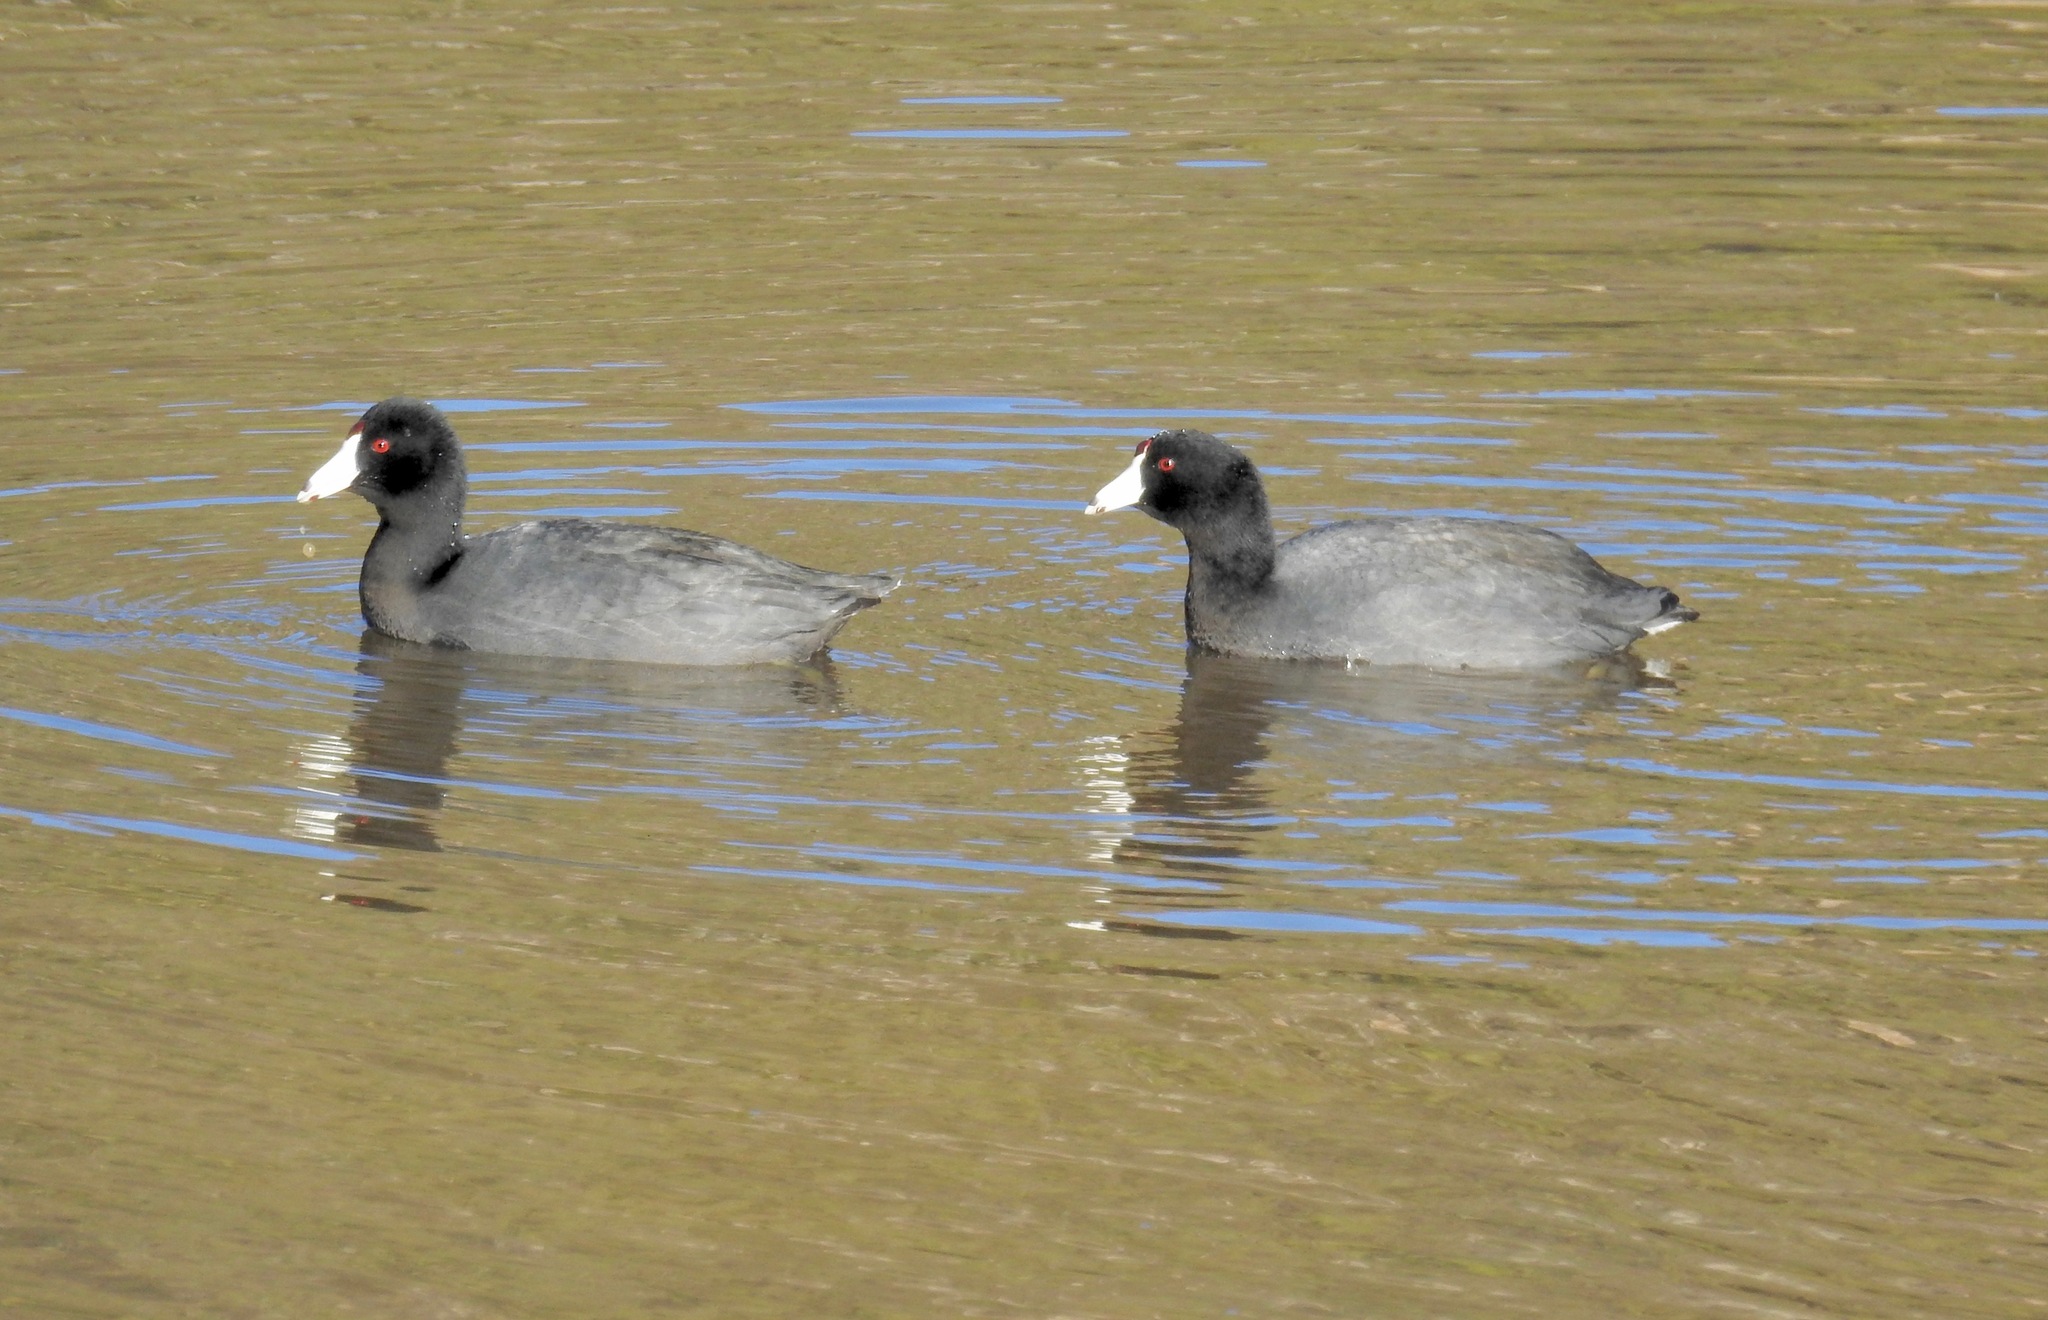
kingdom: Animalia
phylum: Chordata
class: Aves
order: Gruiformes
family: Rallidae
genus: Fulica
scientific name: Fulica americana
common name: American coot
